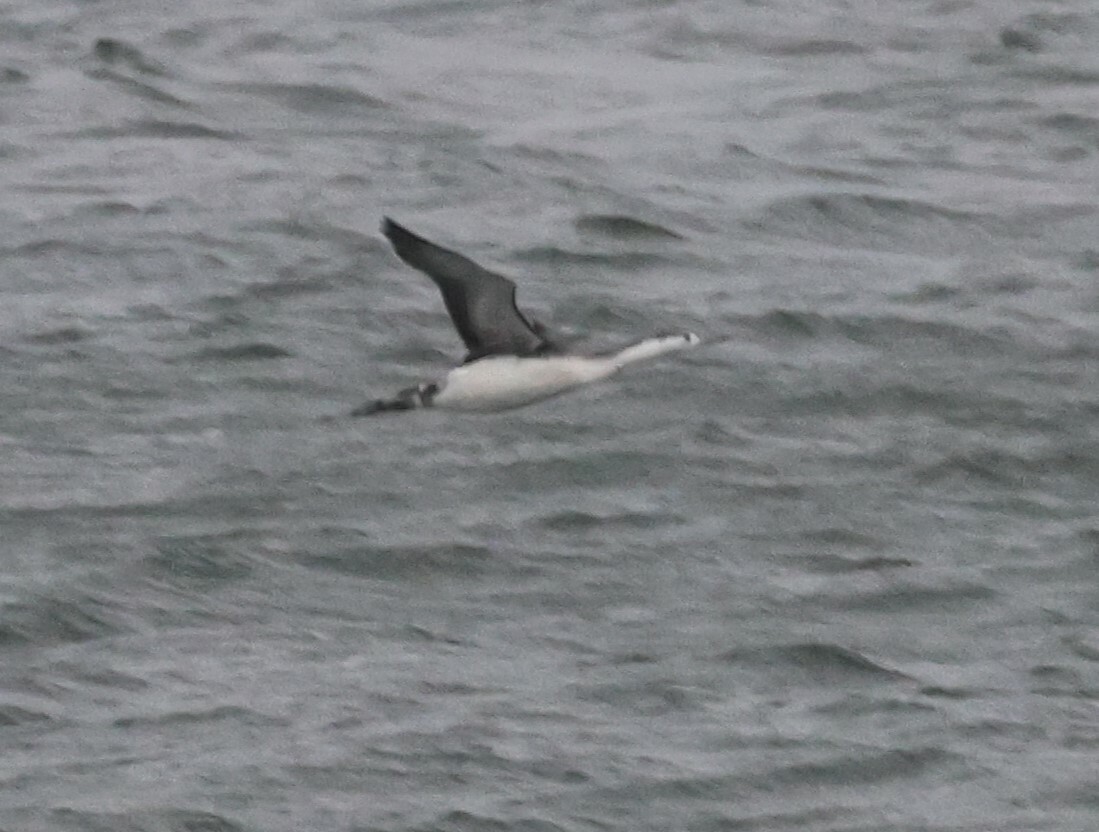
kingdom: Animalia
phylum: Chordata
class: Aves
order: Gaviiformes
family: Gaviidae
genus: Gavia
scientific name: Gavia stellata
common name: Red-throated loon
